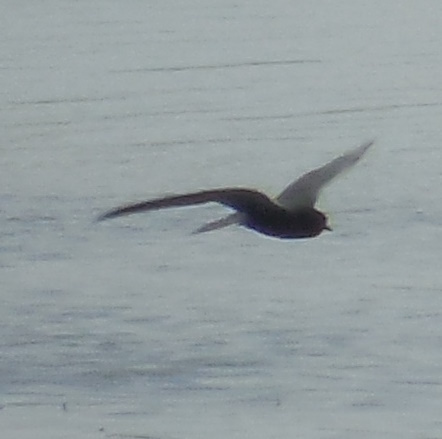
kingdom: Animalia
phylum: Chordata
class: Aves
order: Charadriiformes
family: Laridae
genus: Chlidonias
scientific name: Chlidonias niger
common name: Black tern
